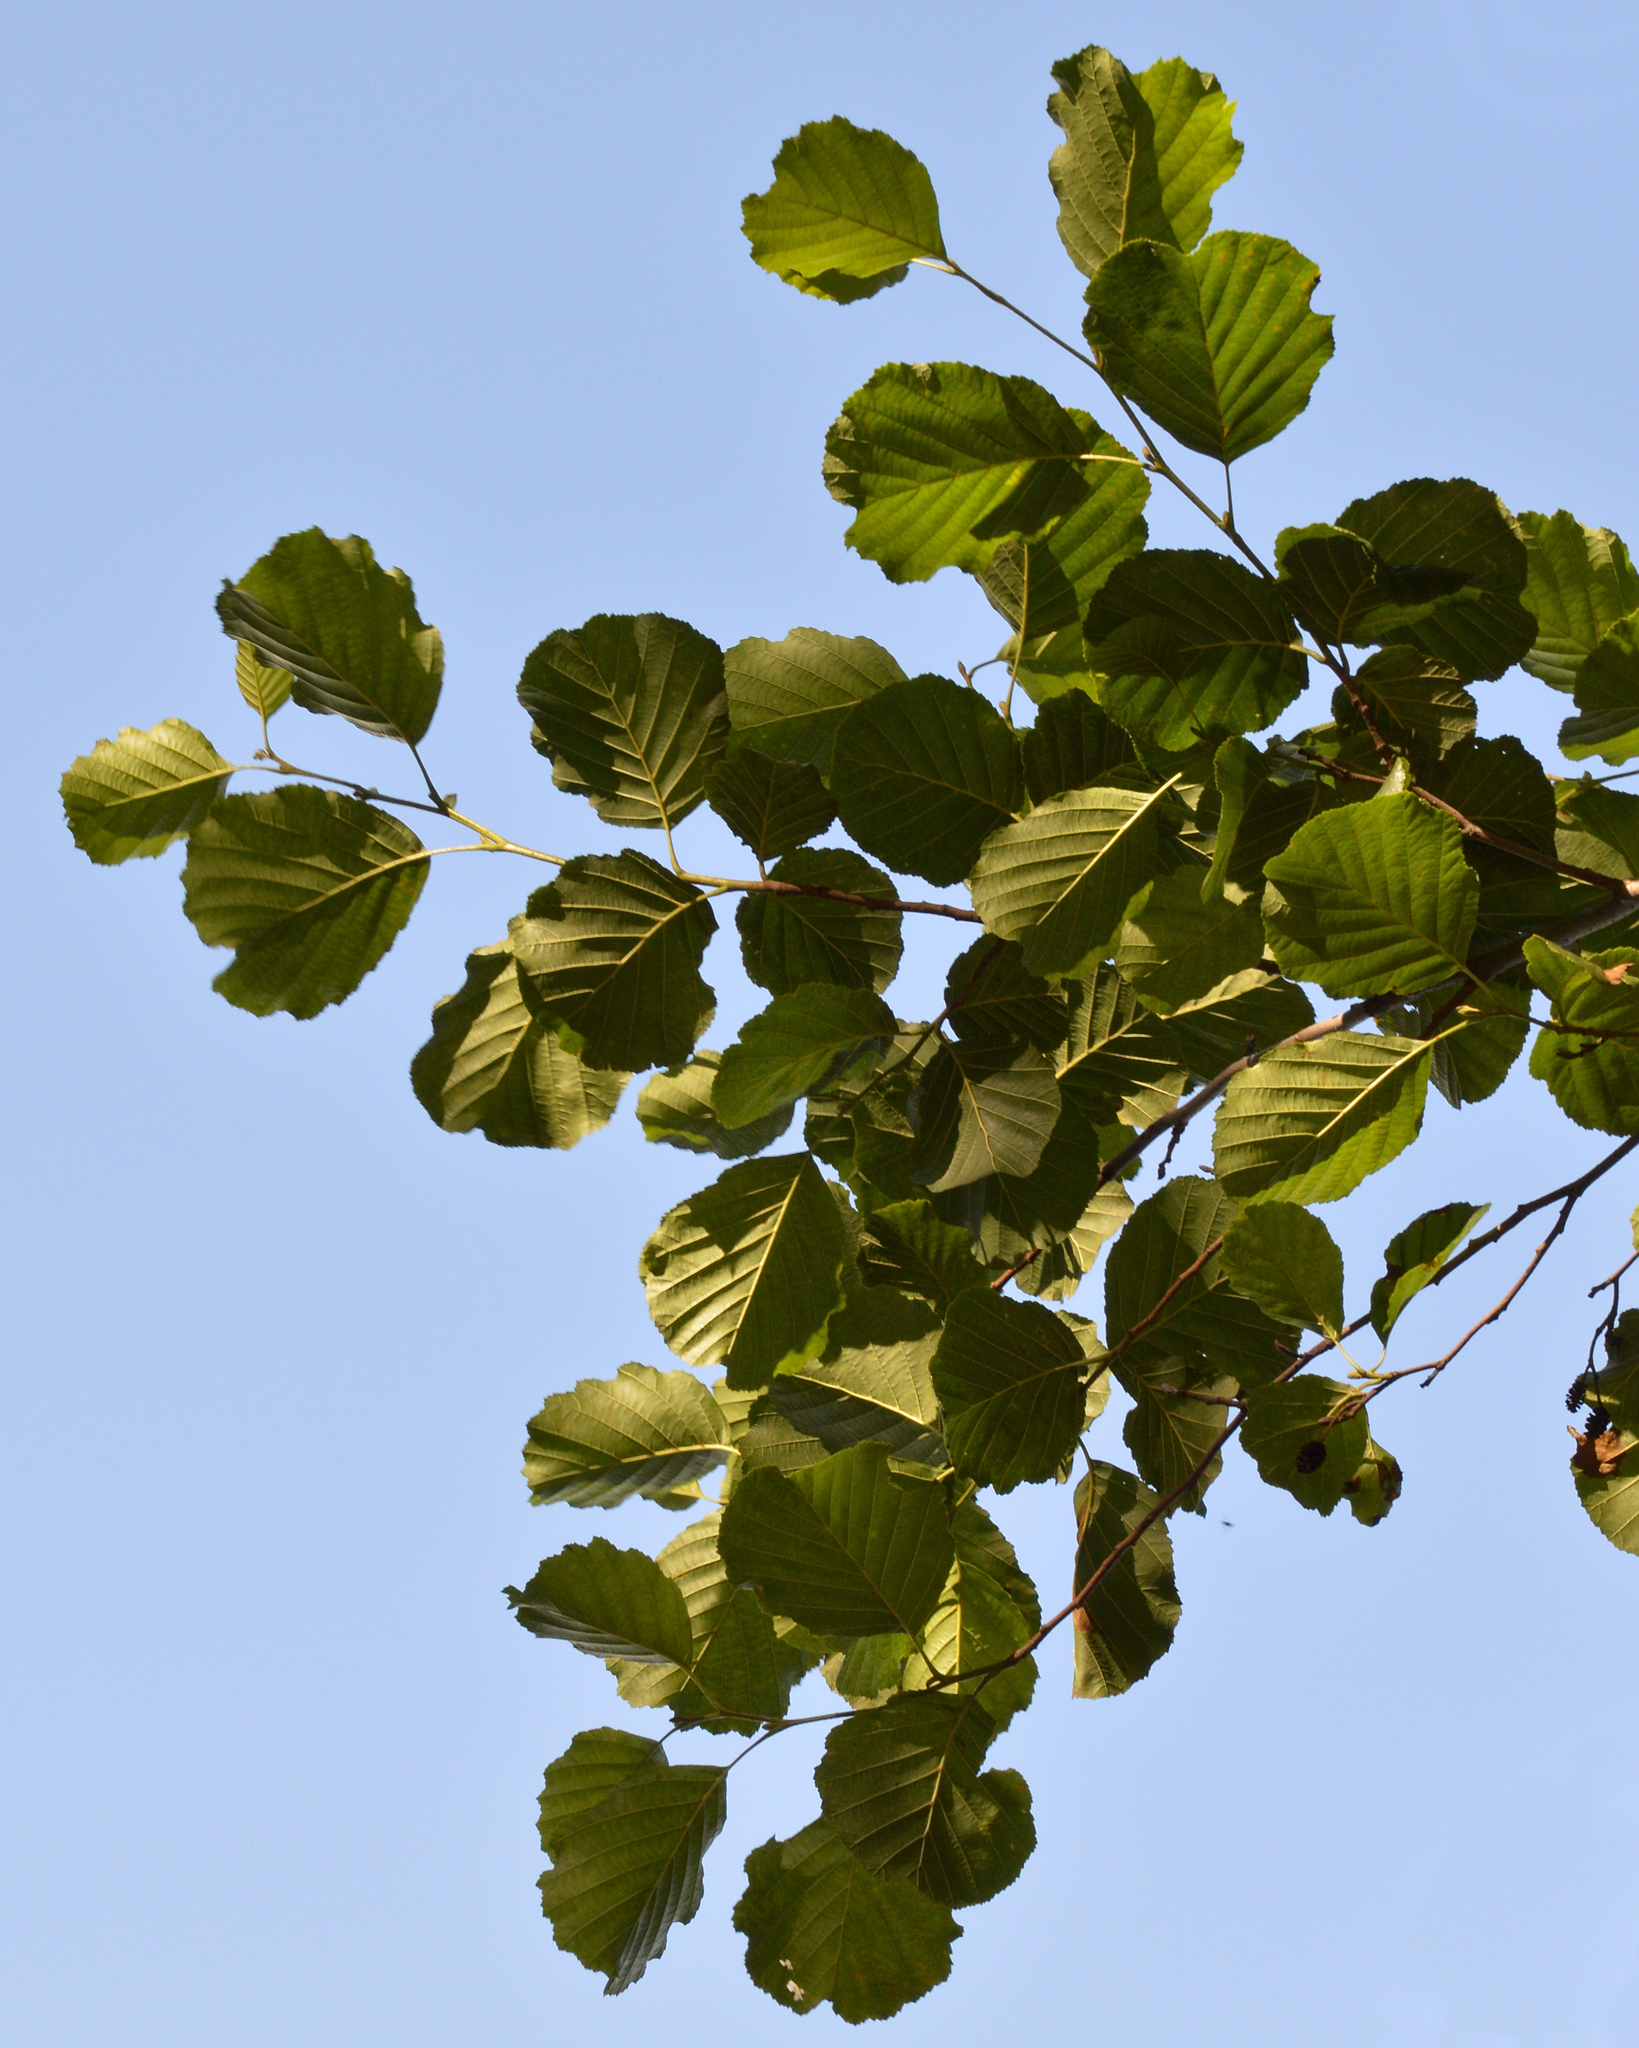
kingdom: Plantae
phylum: Tracheophyta
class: Magnoliopsida
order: Fagales
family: Betulaceae
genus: Alnus
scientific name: Alnus glutinosa
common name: Black alder
